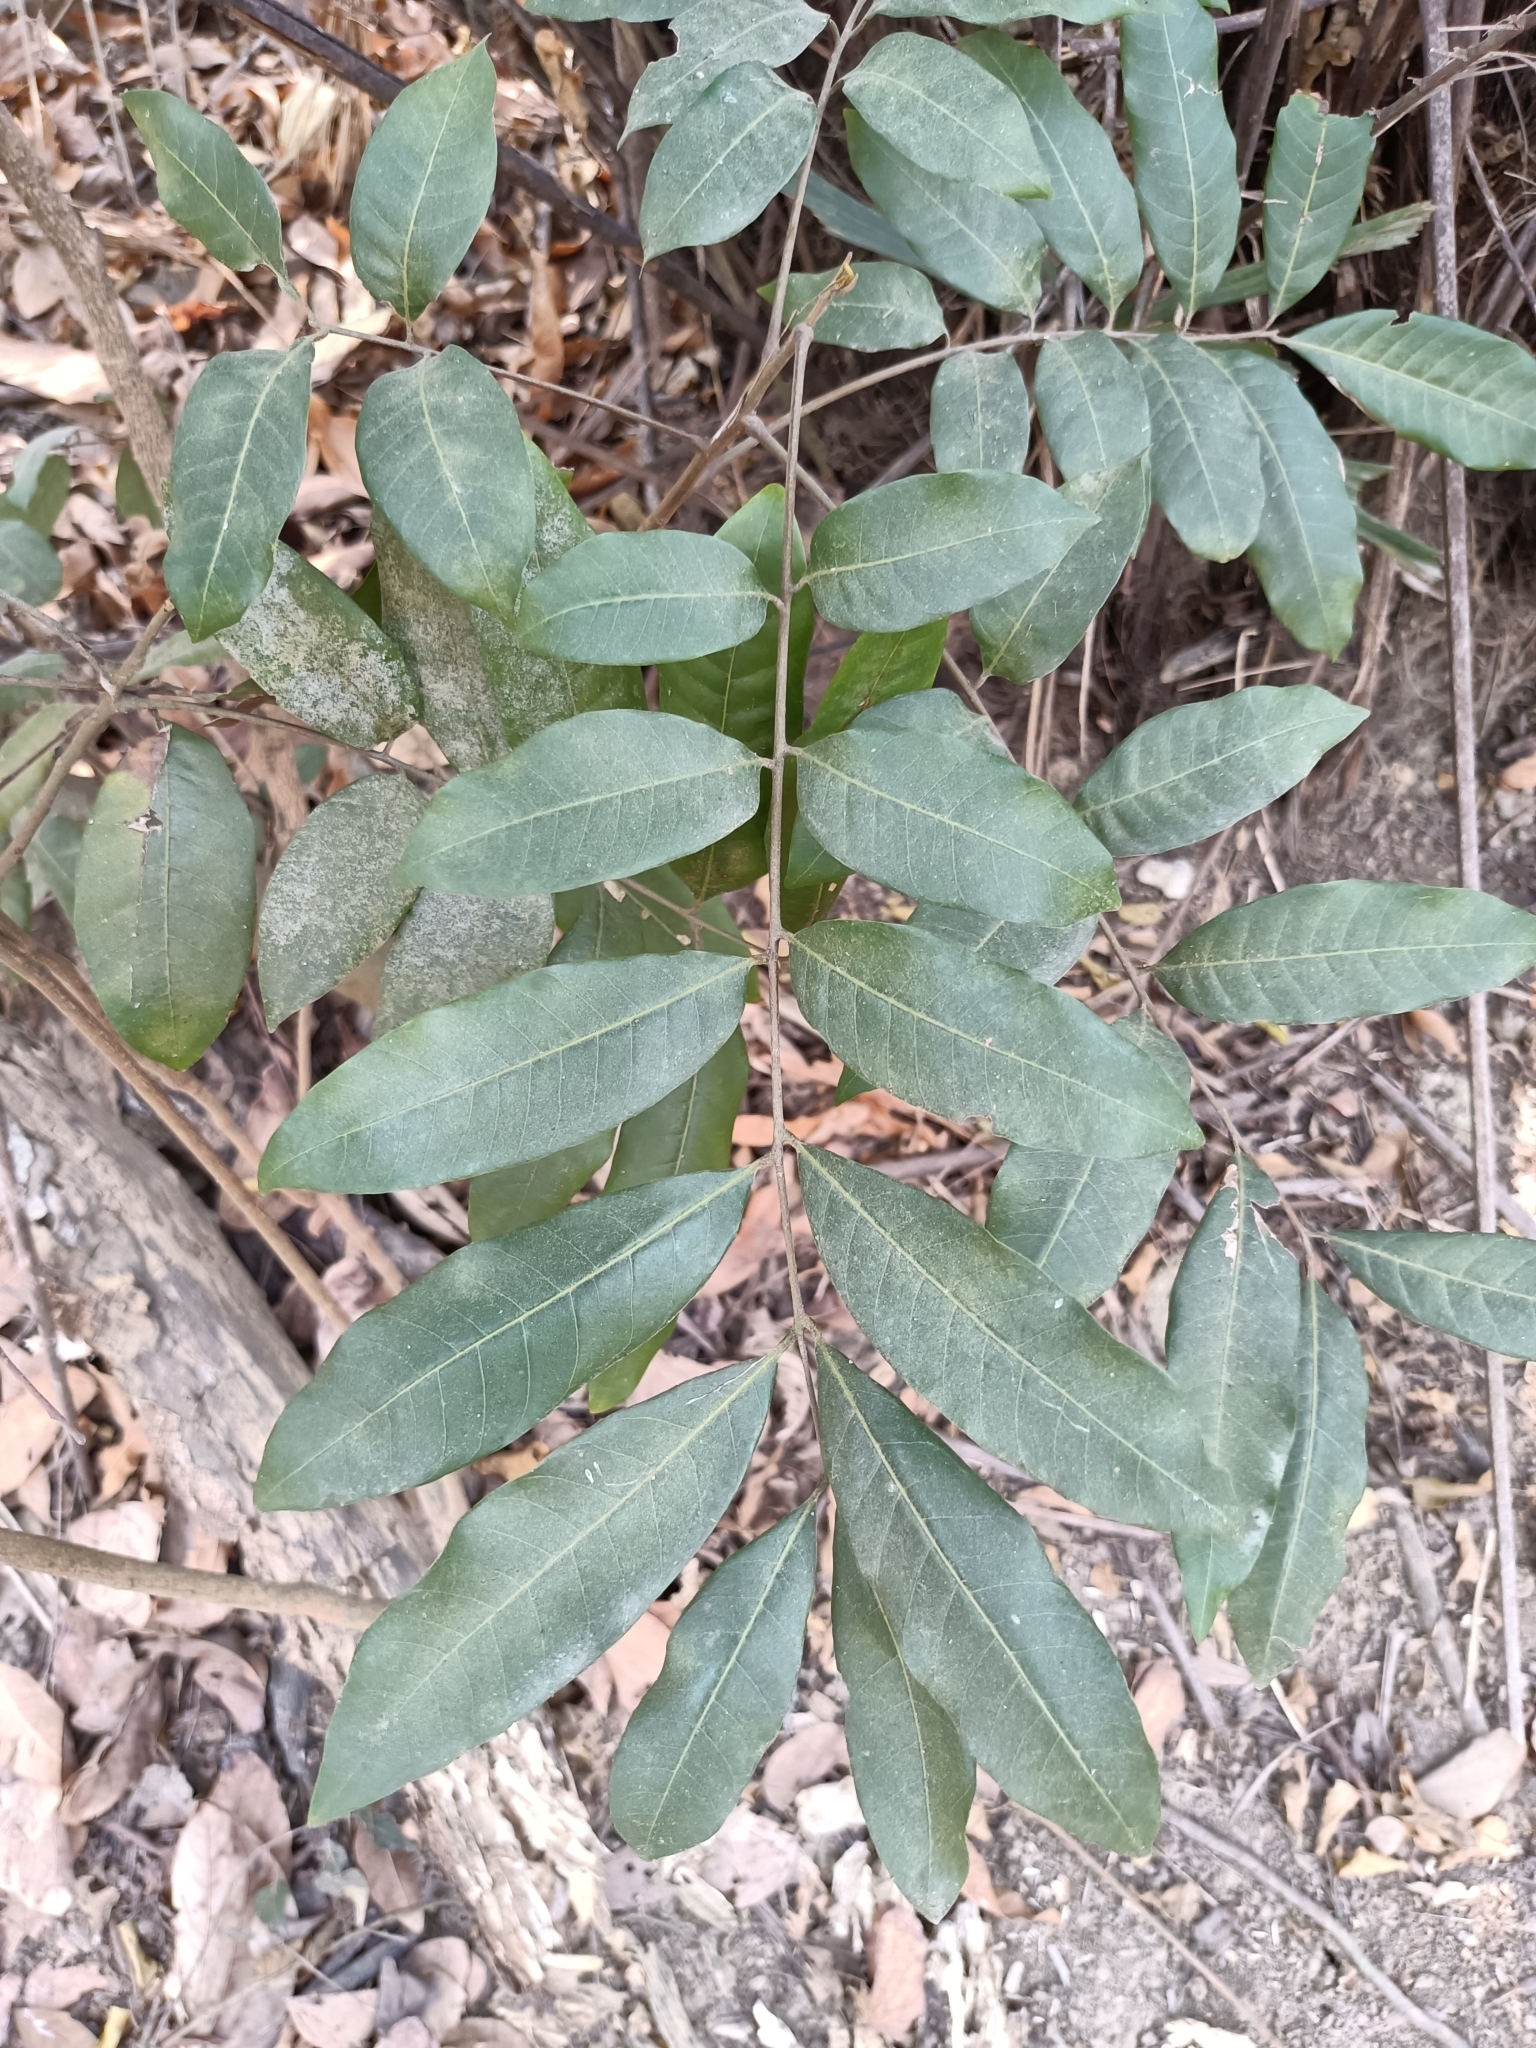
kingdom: Plantae
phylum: Tracheophyta
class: Magnoliopsida
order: Sapindales
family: Sapindaceae
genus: Dimocarpus
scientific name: Dimocarpus longan
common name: Longan
